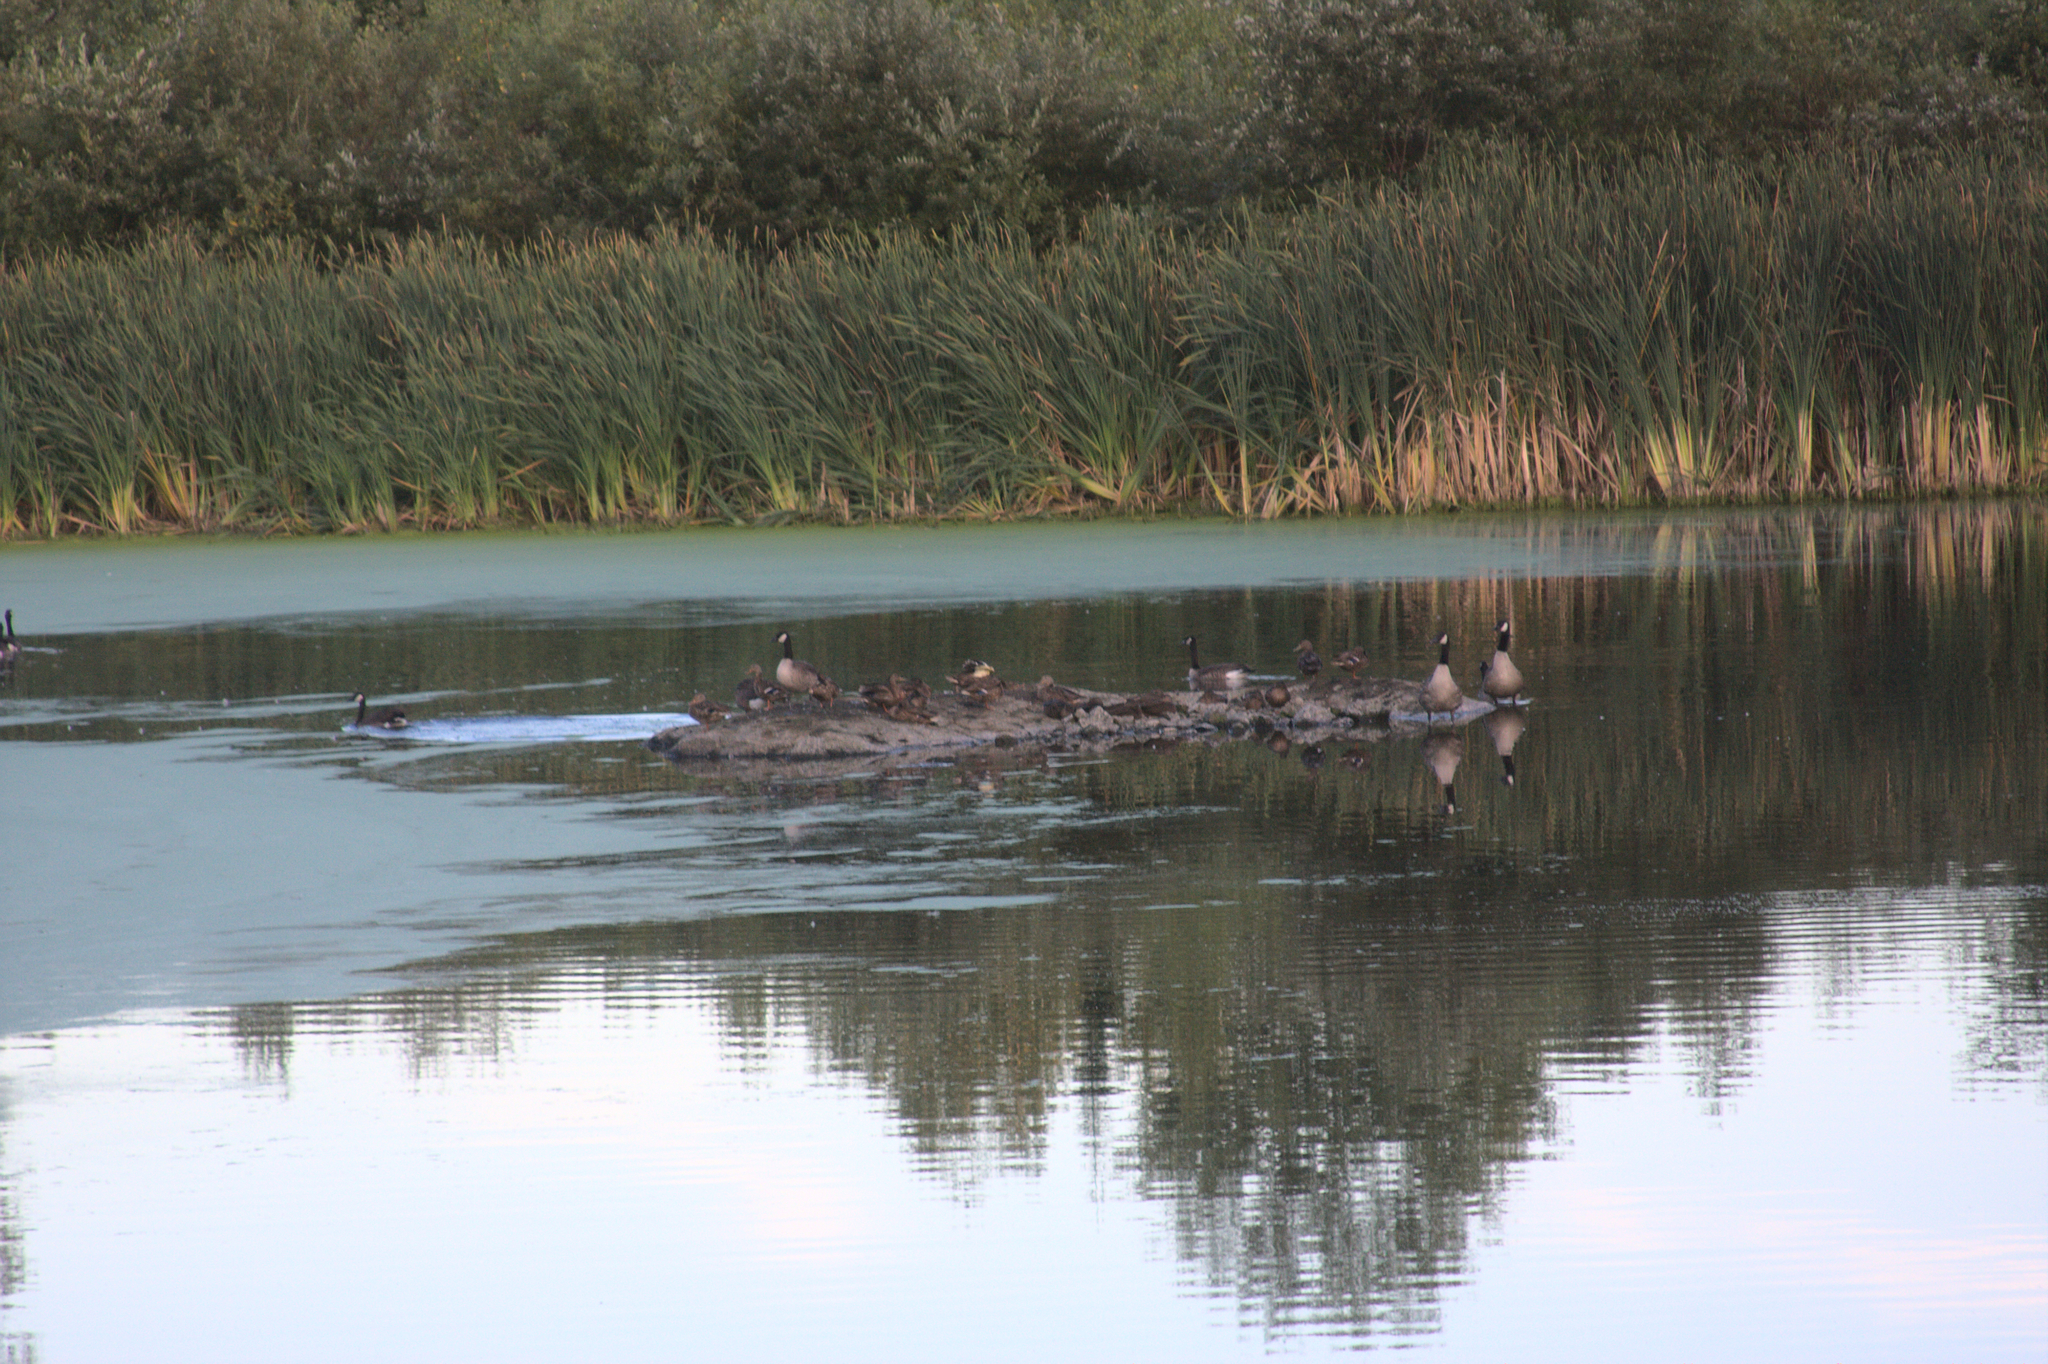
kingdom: Animalia
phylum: Chordata
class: Aves
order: Anseriformes
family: Anatidae
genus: Branta
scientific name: Branta canadensis
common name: Canada goose
